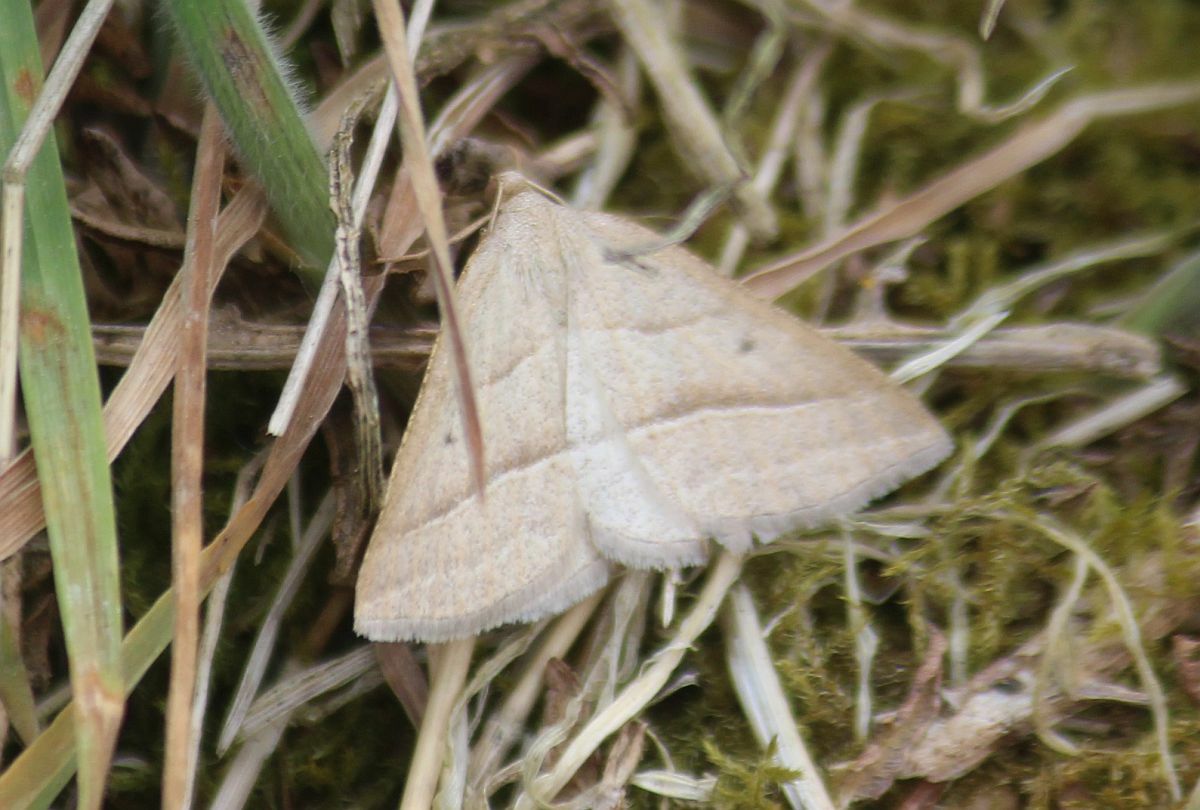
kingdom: Animalia
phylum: Arthropoda
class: Insecta
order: Lepidoptera
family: Pterophoridae
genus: Pterophorus
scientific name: Pterophorus Petrophora chlorosata
